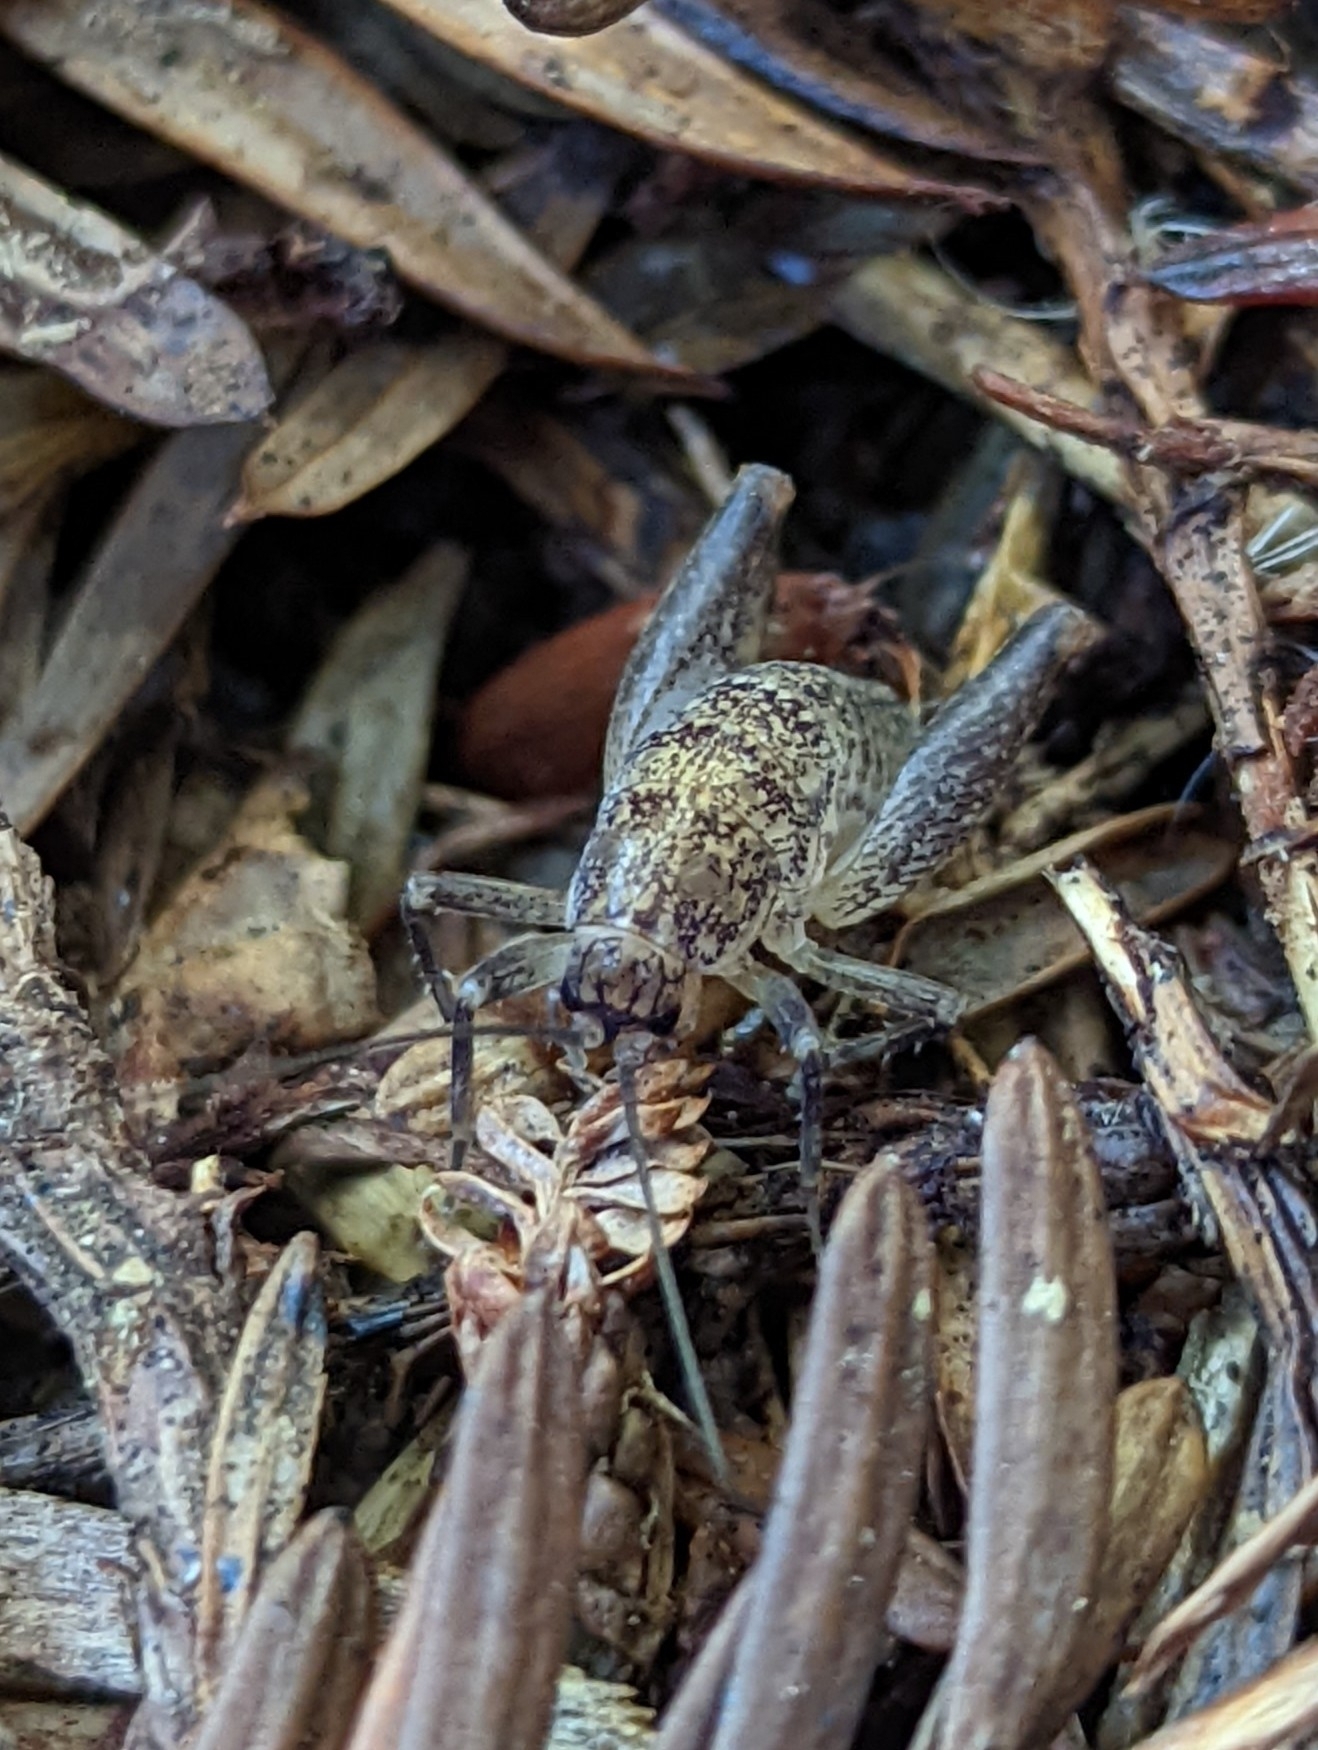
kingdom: Animalia
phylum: Arthropoda
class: Insecta
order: Orthoptera
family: Rhaphidophoridae
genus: Pristoceuthophilus
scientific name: Pristoceuthophilus
